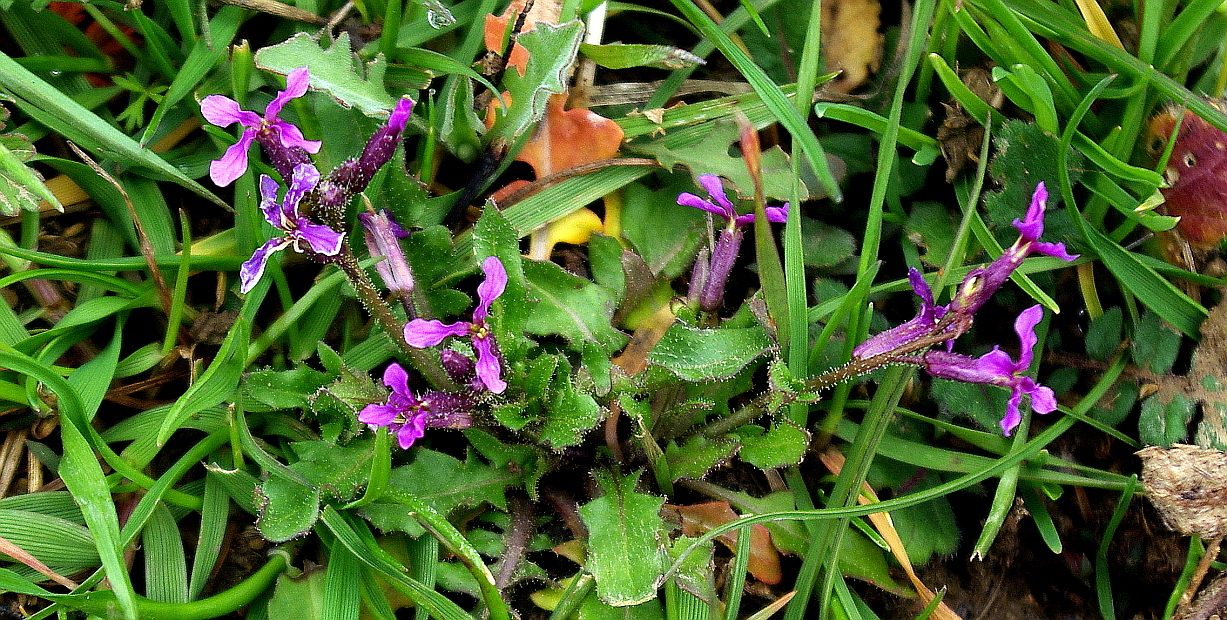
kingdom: Plantae
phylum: Tracheophyta
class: Magnoliopsida
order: Brassicales
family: Brassicaceae
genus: Chorispora
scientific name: Chorispora tenella
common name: Crossflower
